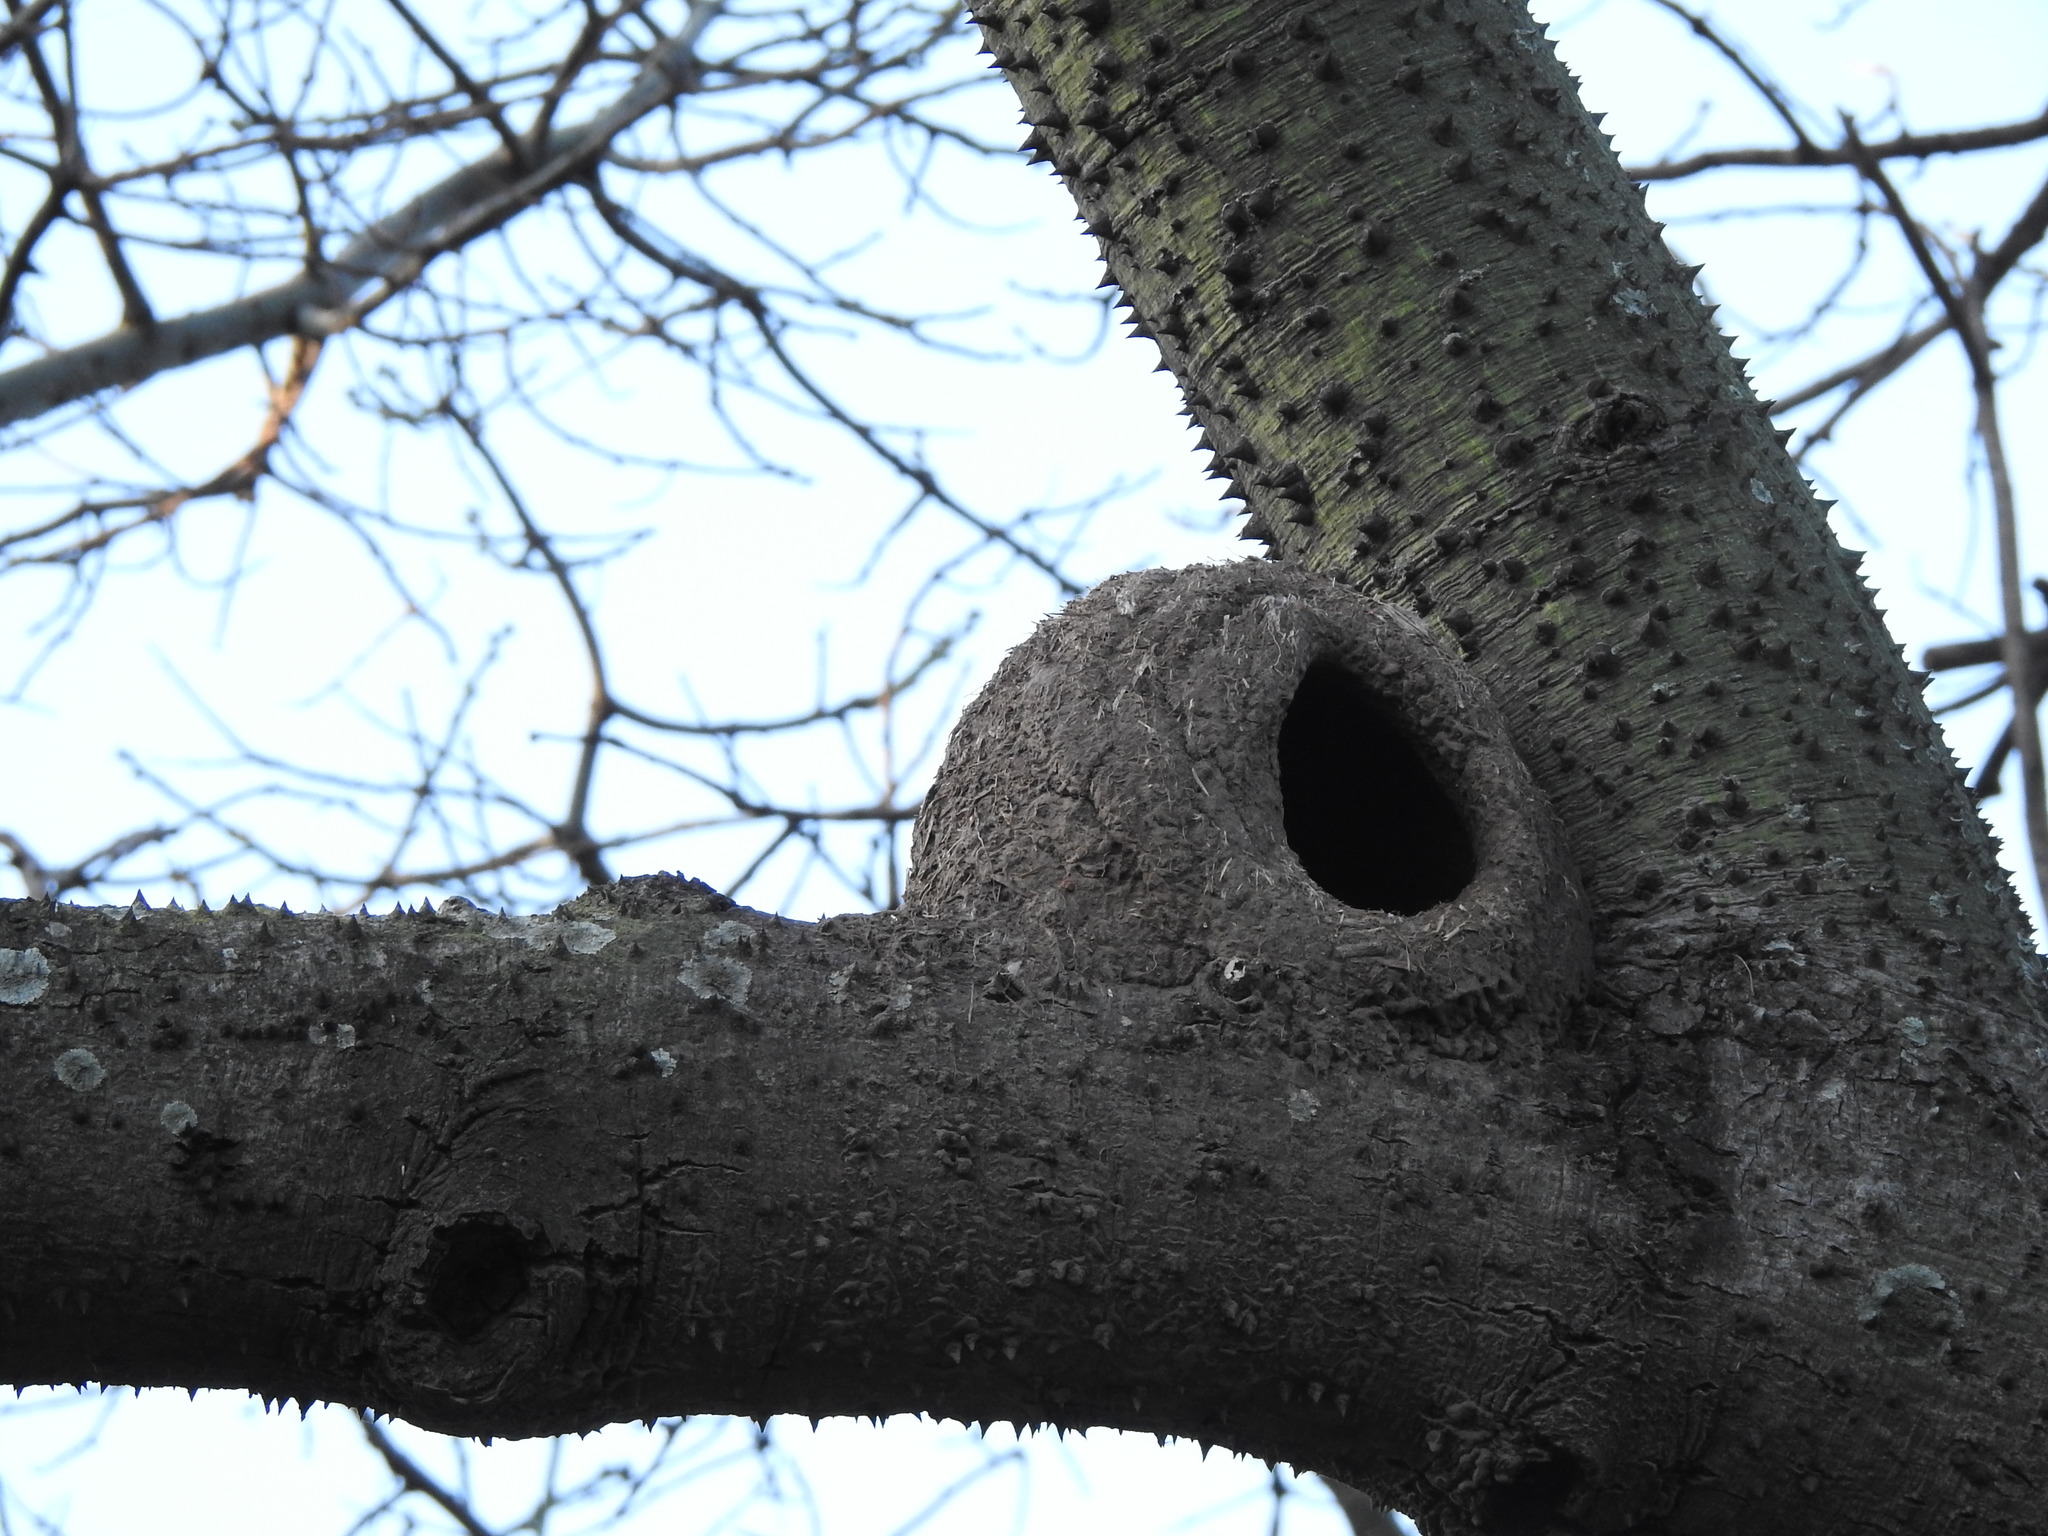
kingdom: Animalia
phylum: Chordata
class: Aves
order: Passeriformes
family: Furnariidae
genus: Furnarius
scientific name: Furnarius rufus
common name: Rufous hornero
